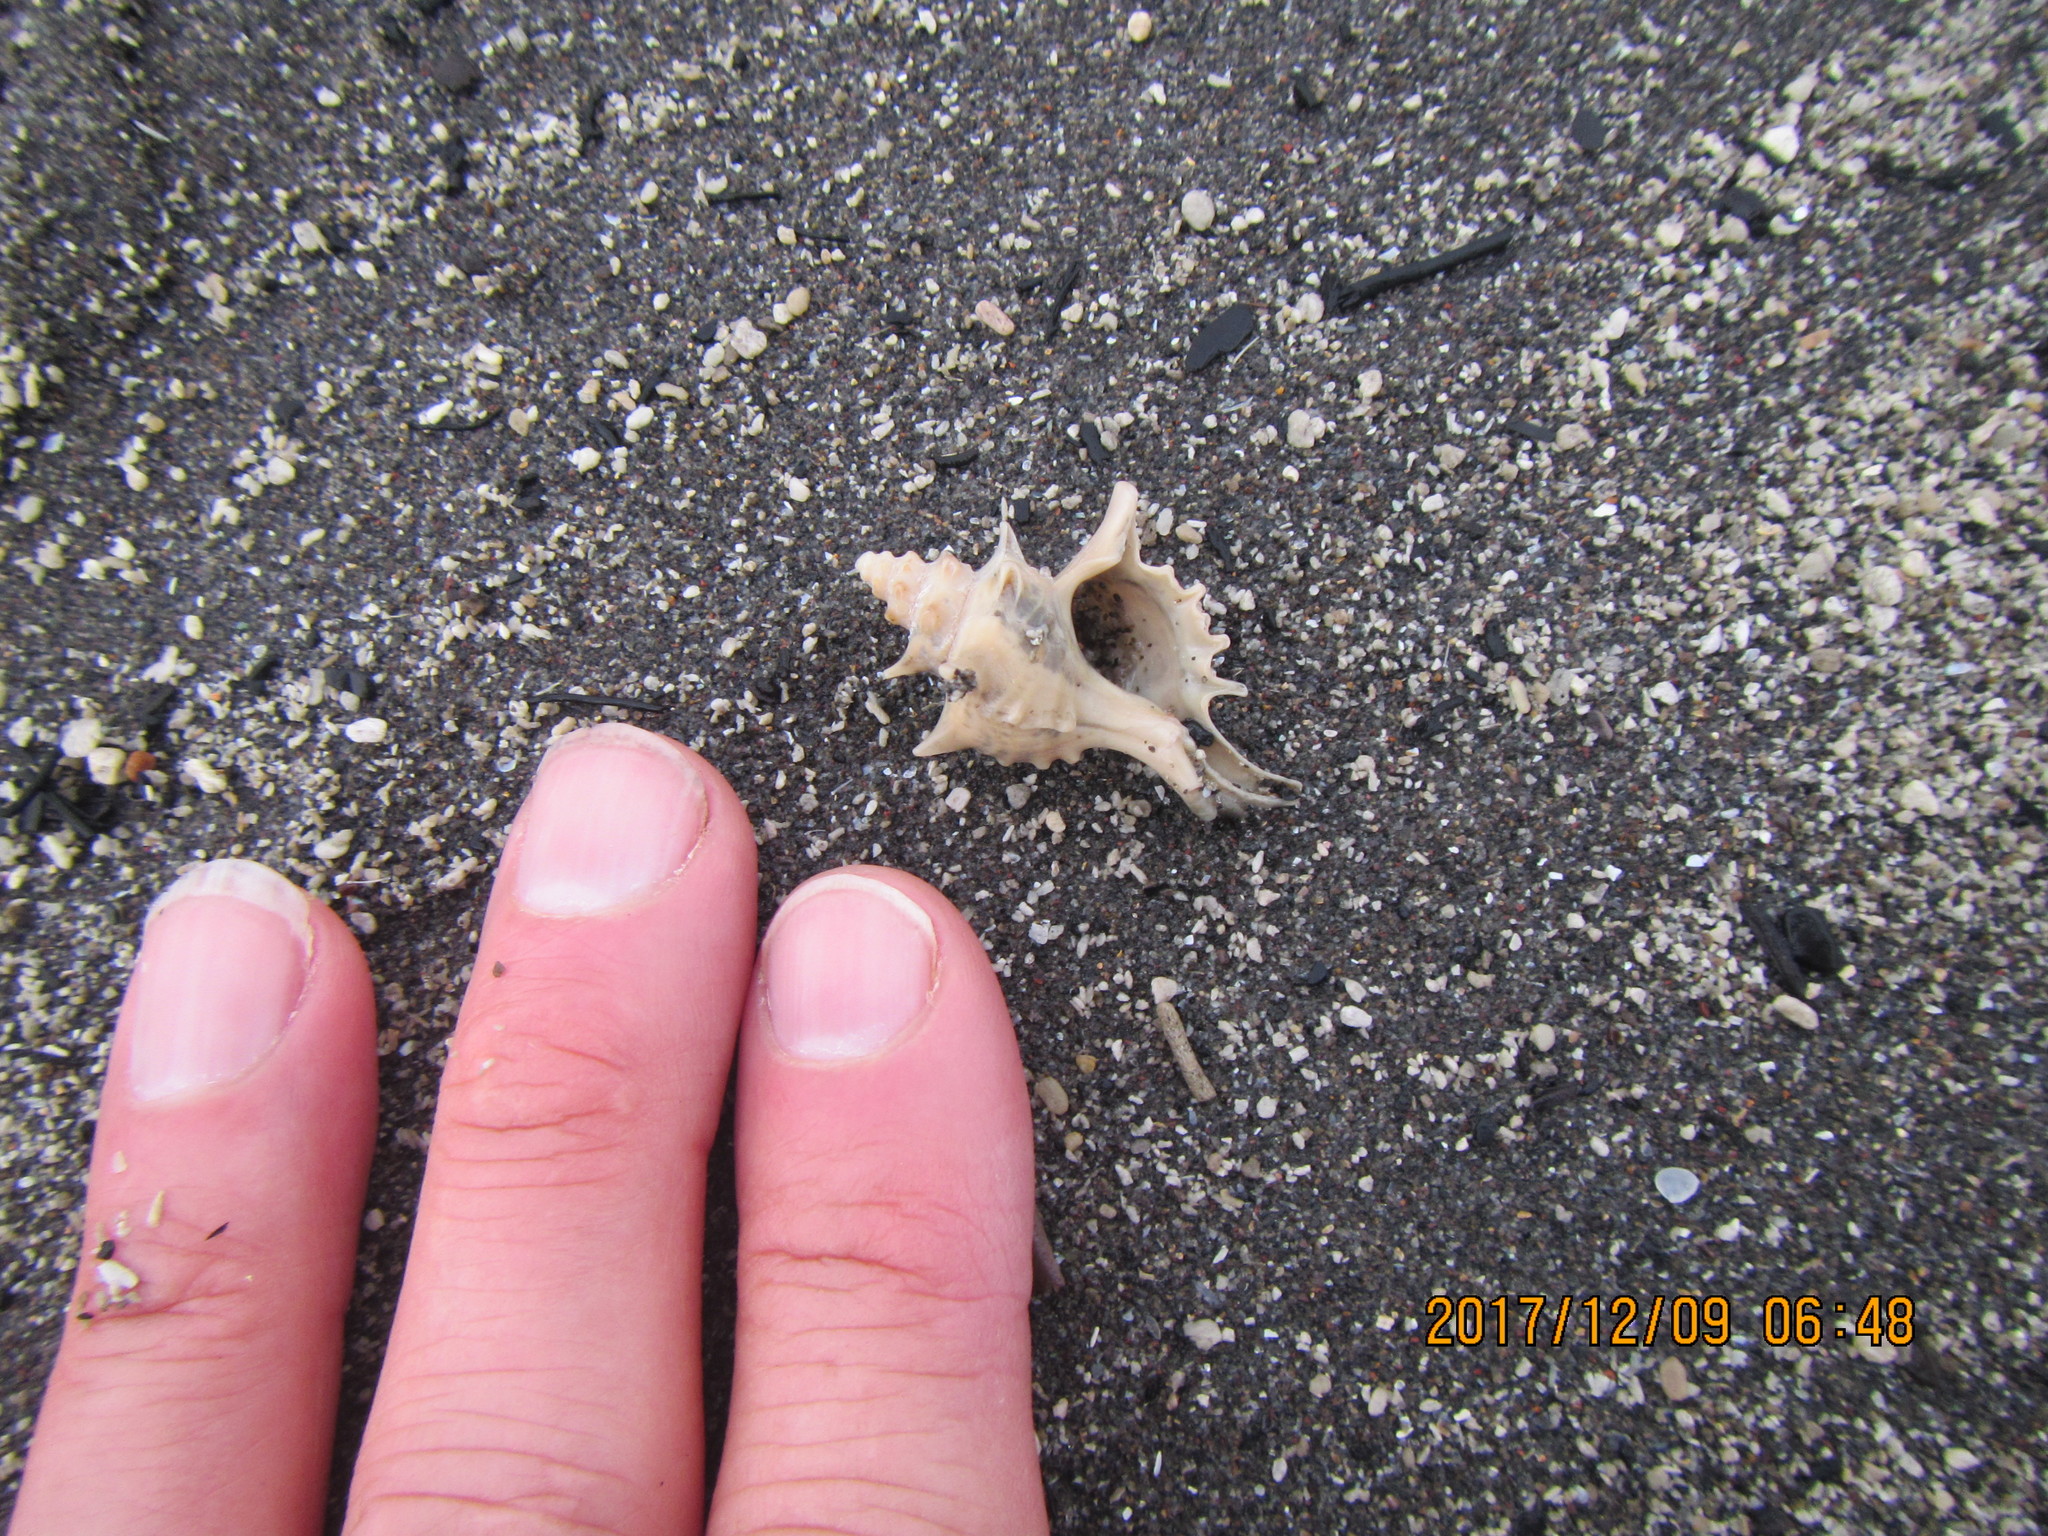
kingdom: Animalia
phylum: Mollusca
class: Gastropoda
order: Neogastropoda
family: Muricidae
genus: Poirieria
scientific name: Poirieria zelandica
